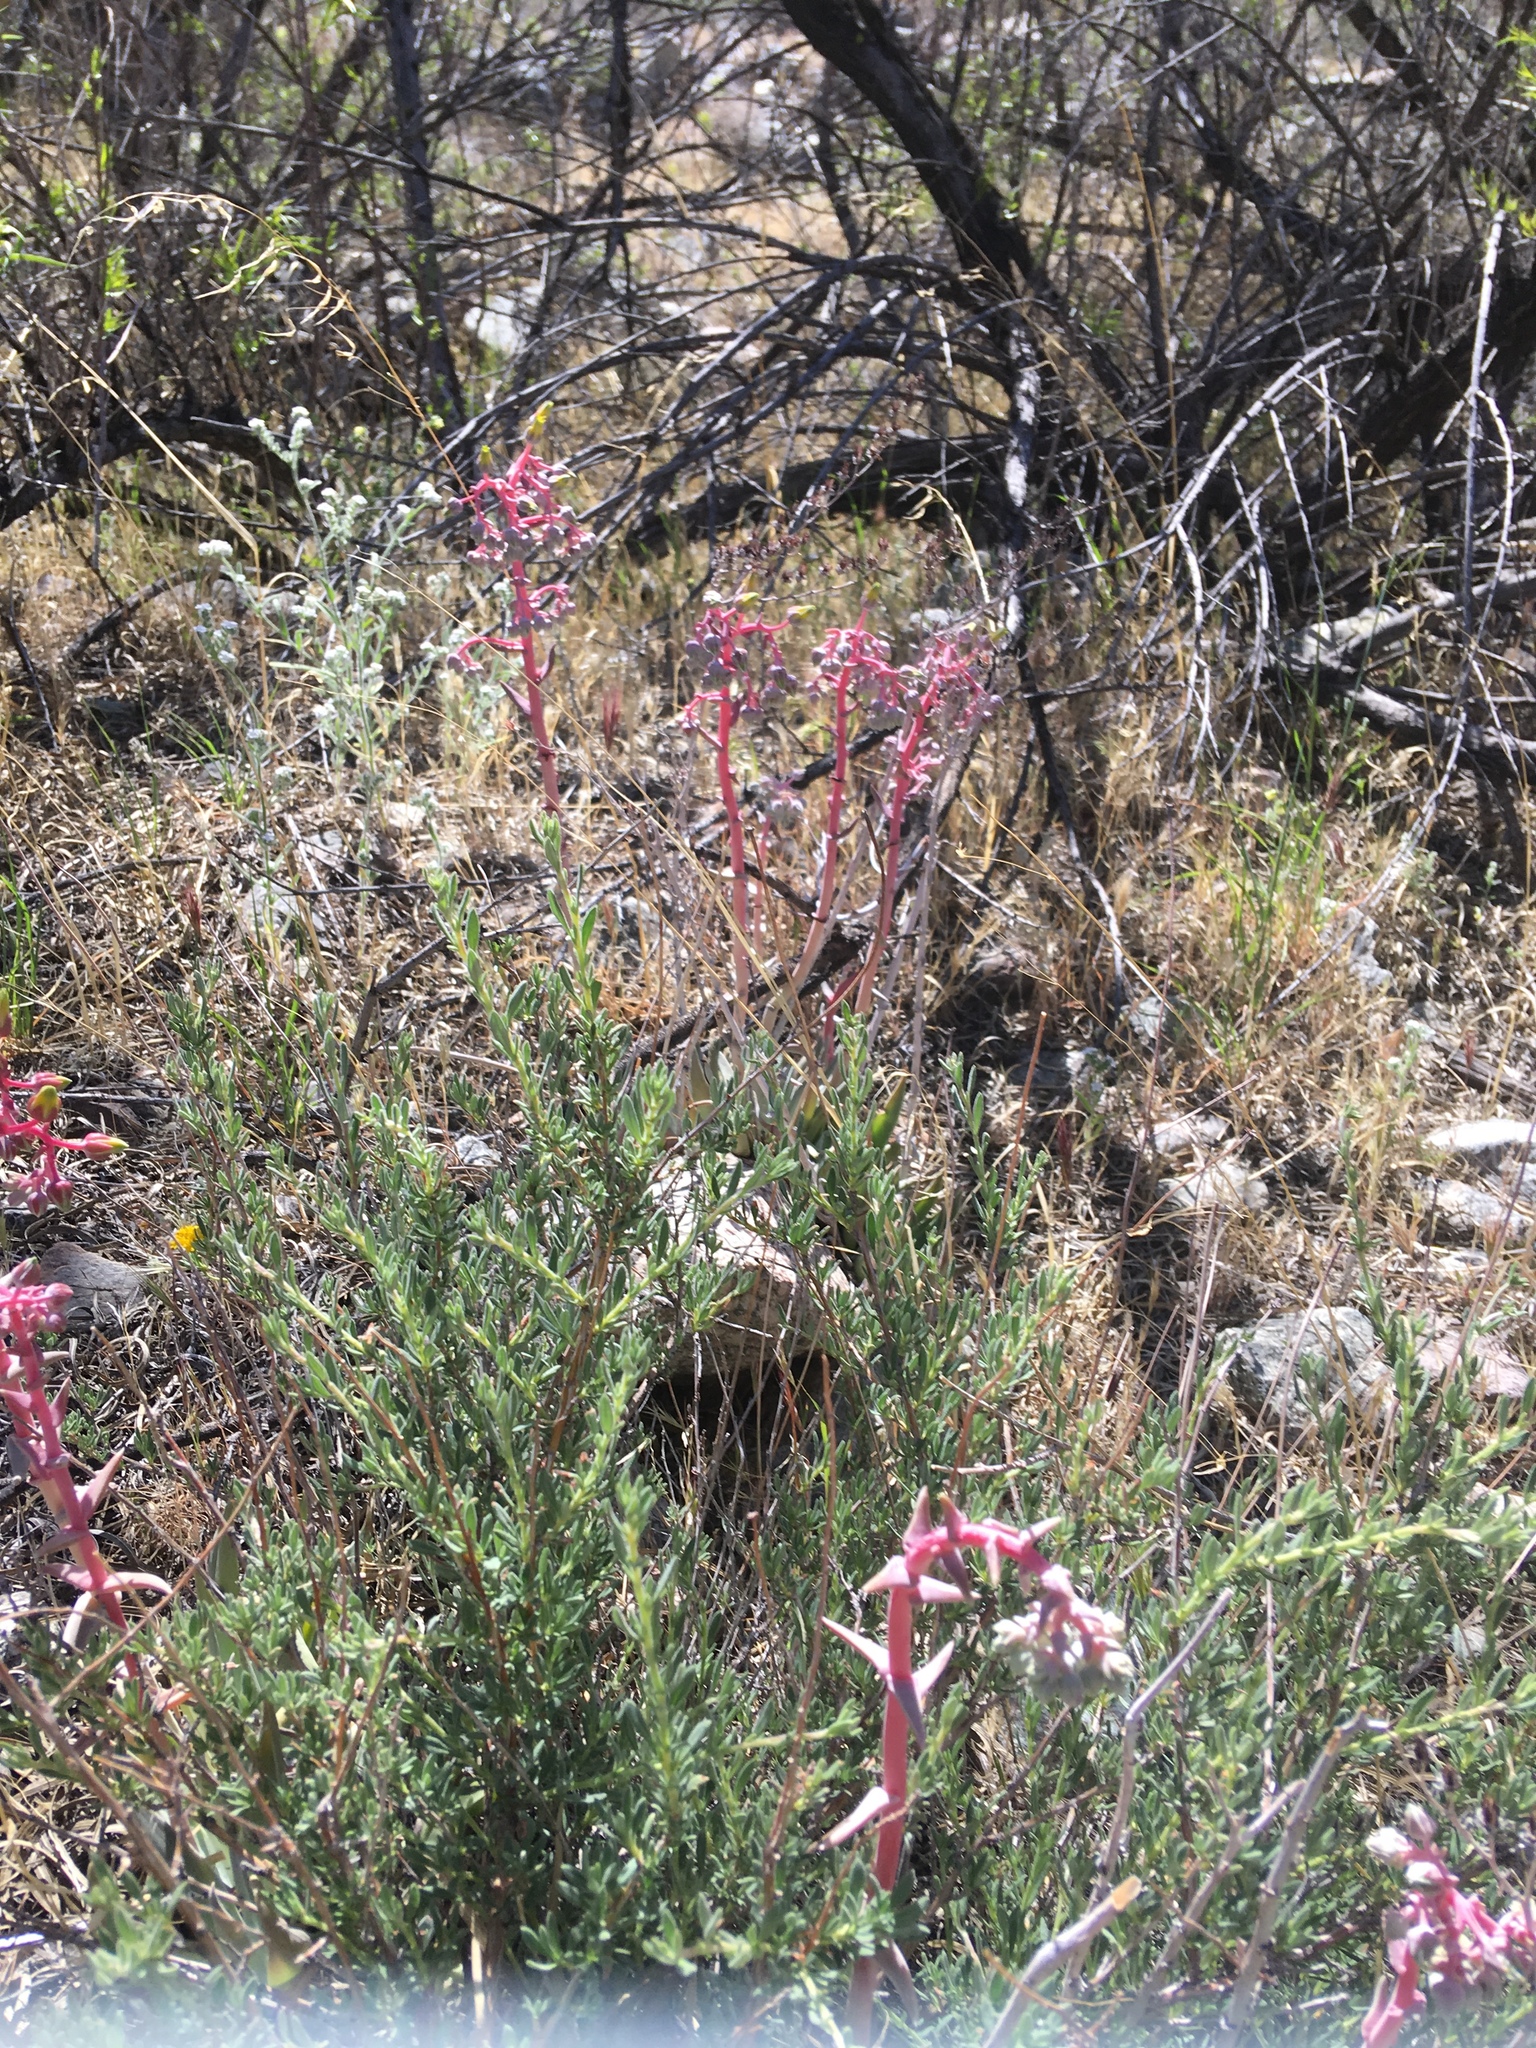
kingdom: Plantae
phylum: Tracheophyta
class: Magnoliopsida
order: Saxifragales
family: Crassulaceae
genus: Dudleya
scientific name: Dudleya saxosa
